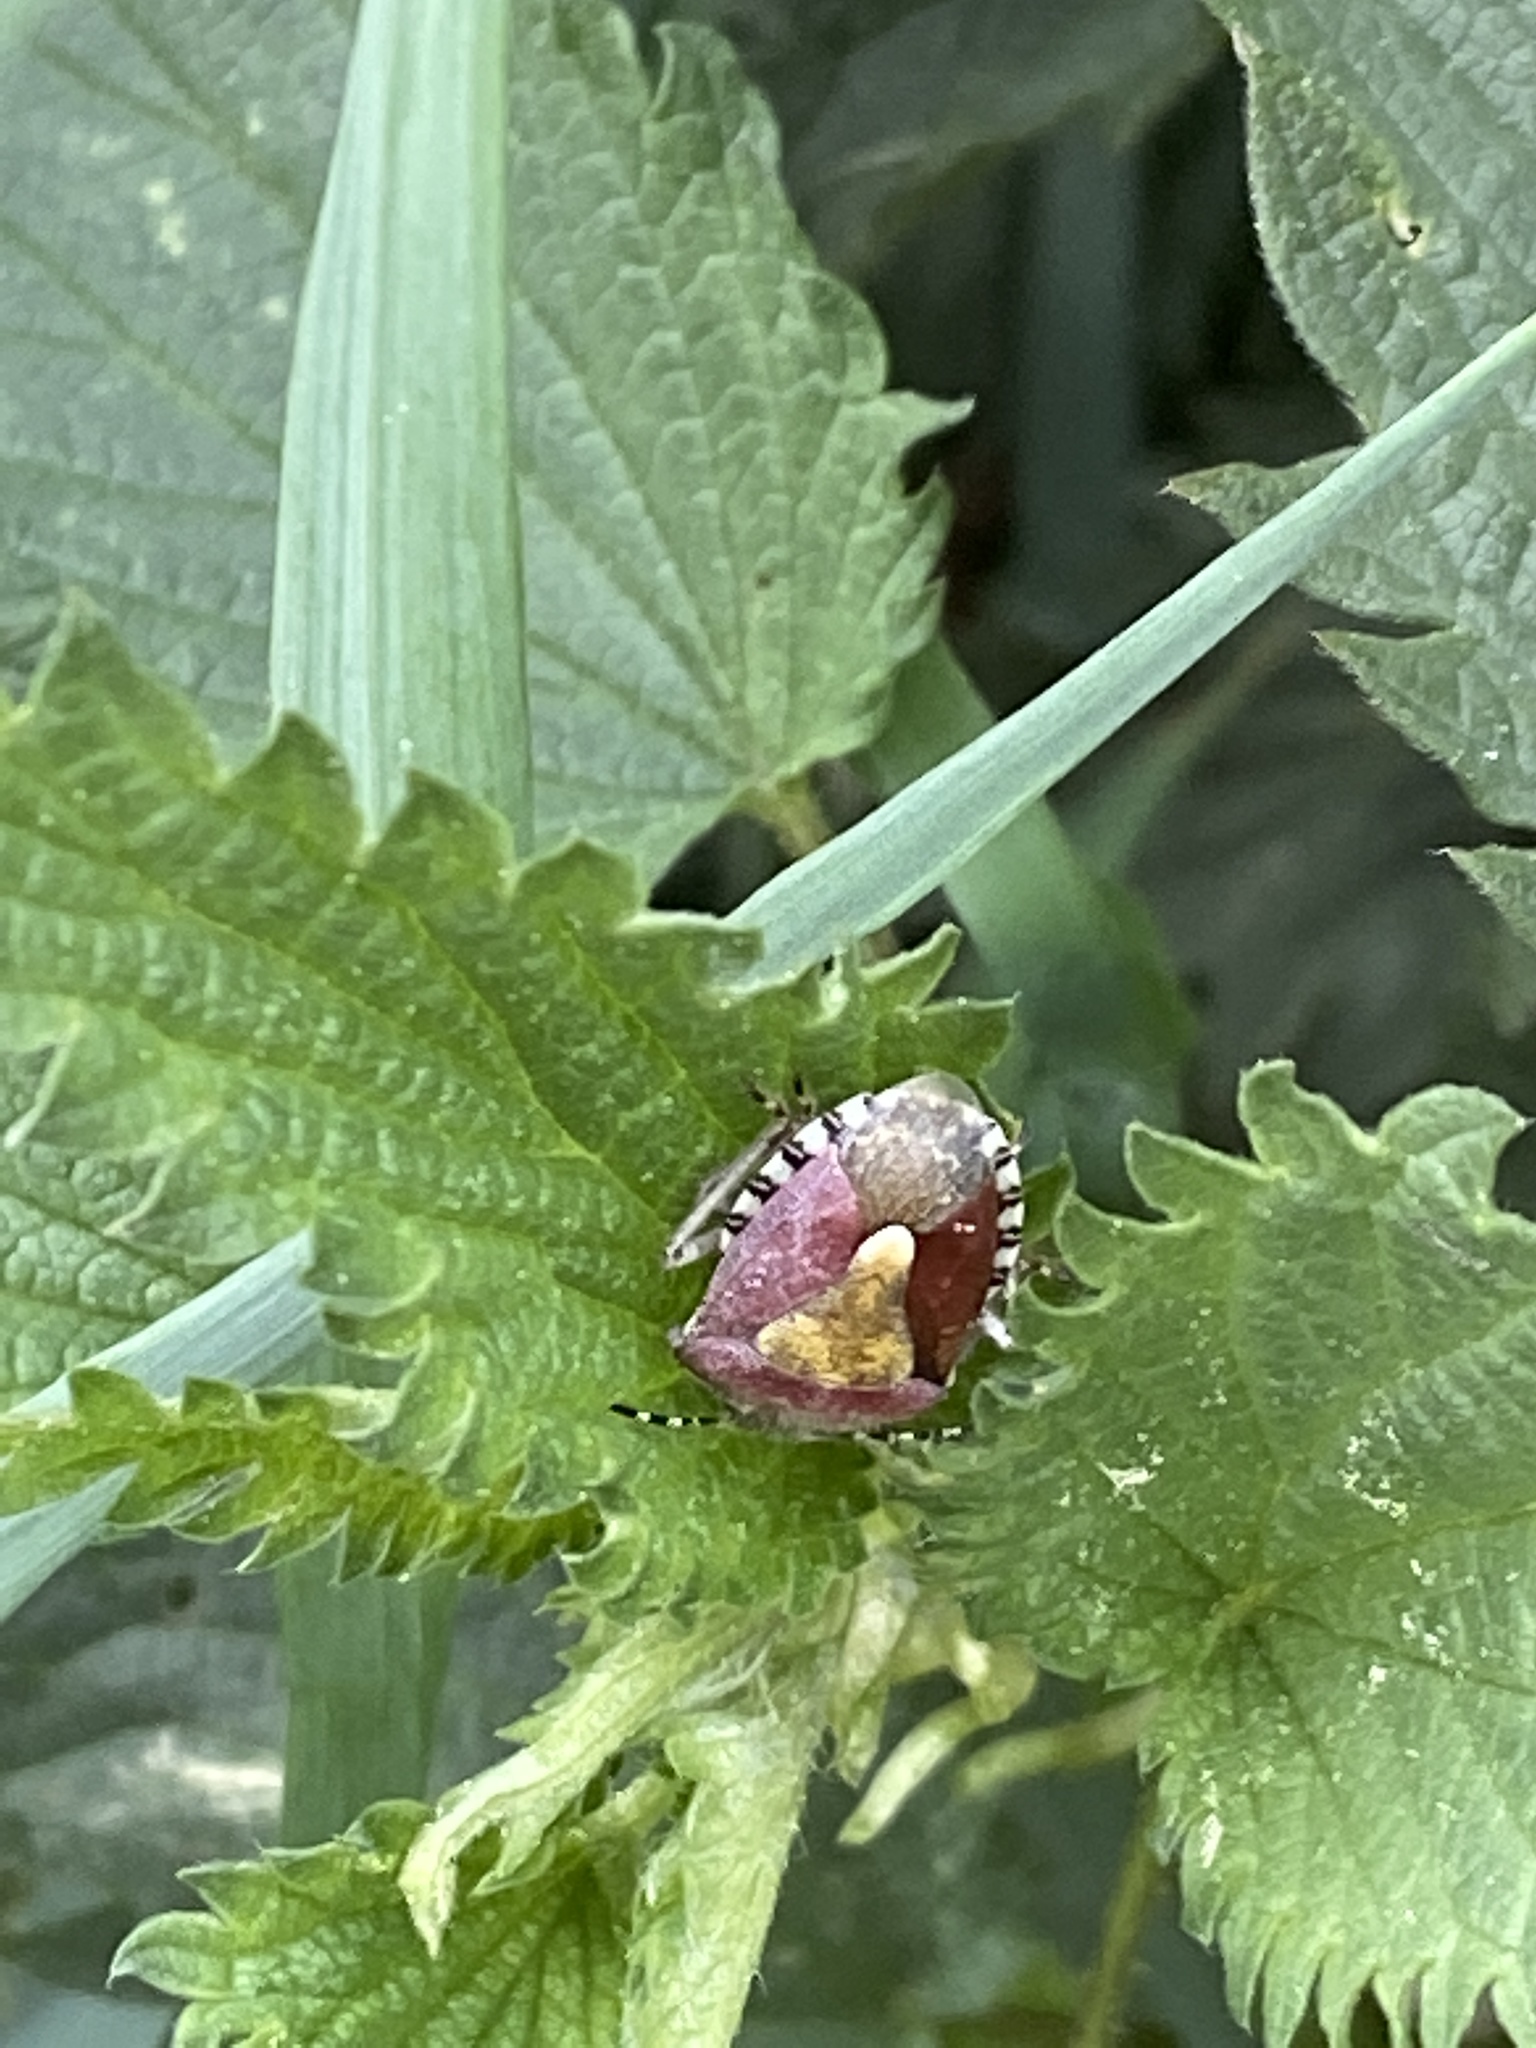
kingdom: Animalia
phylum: Arthropoda
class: Insecta
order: Hemiptera
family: Pentatomidae
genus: Dolycoris
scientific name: Dolycoris baccarum
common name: Sloe bug
